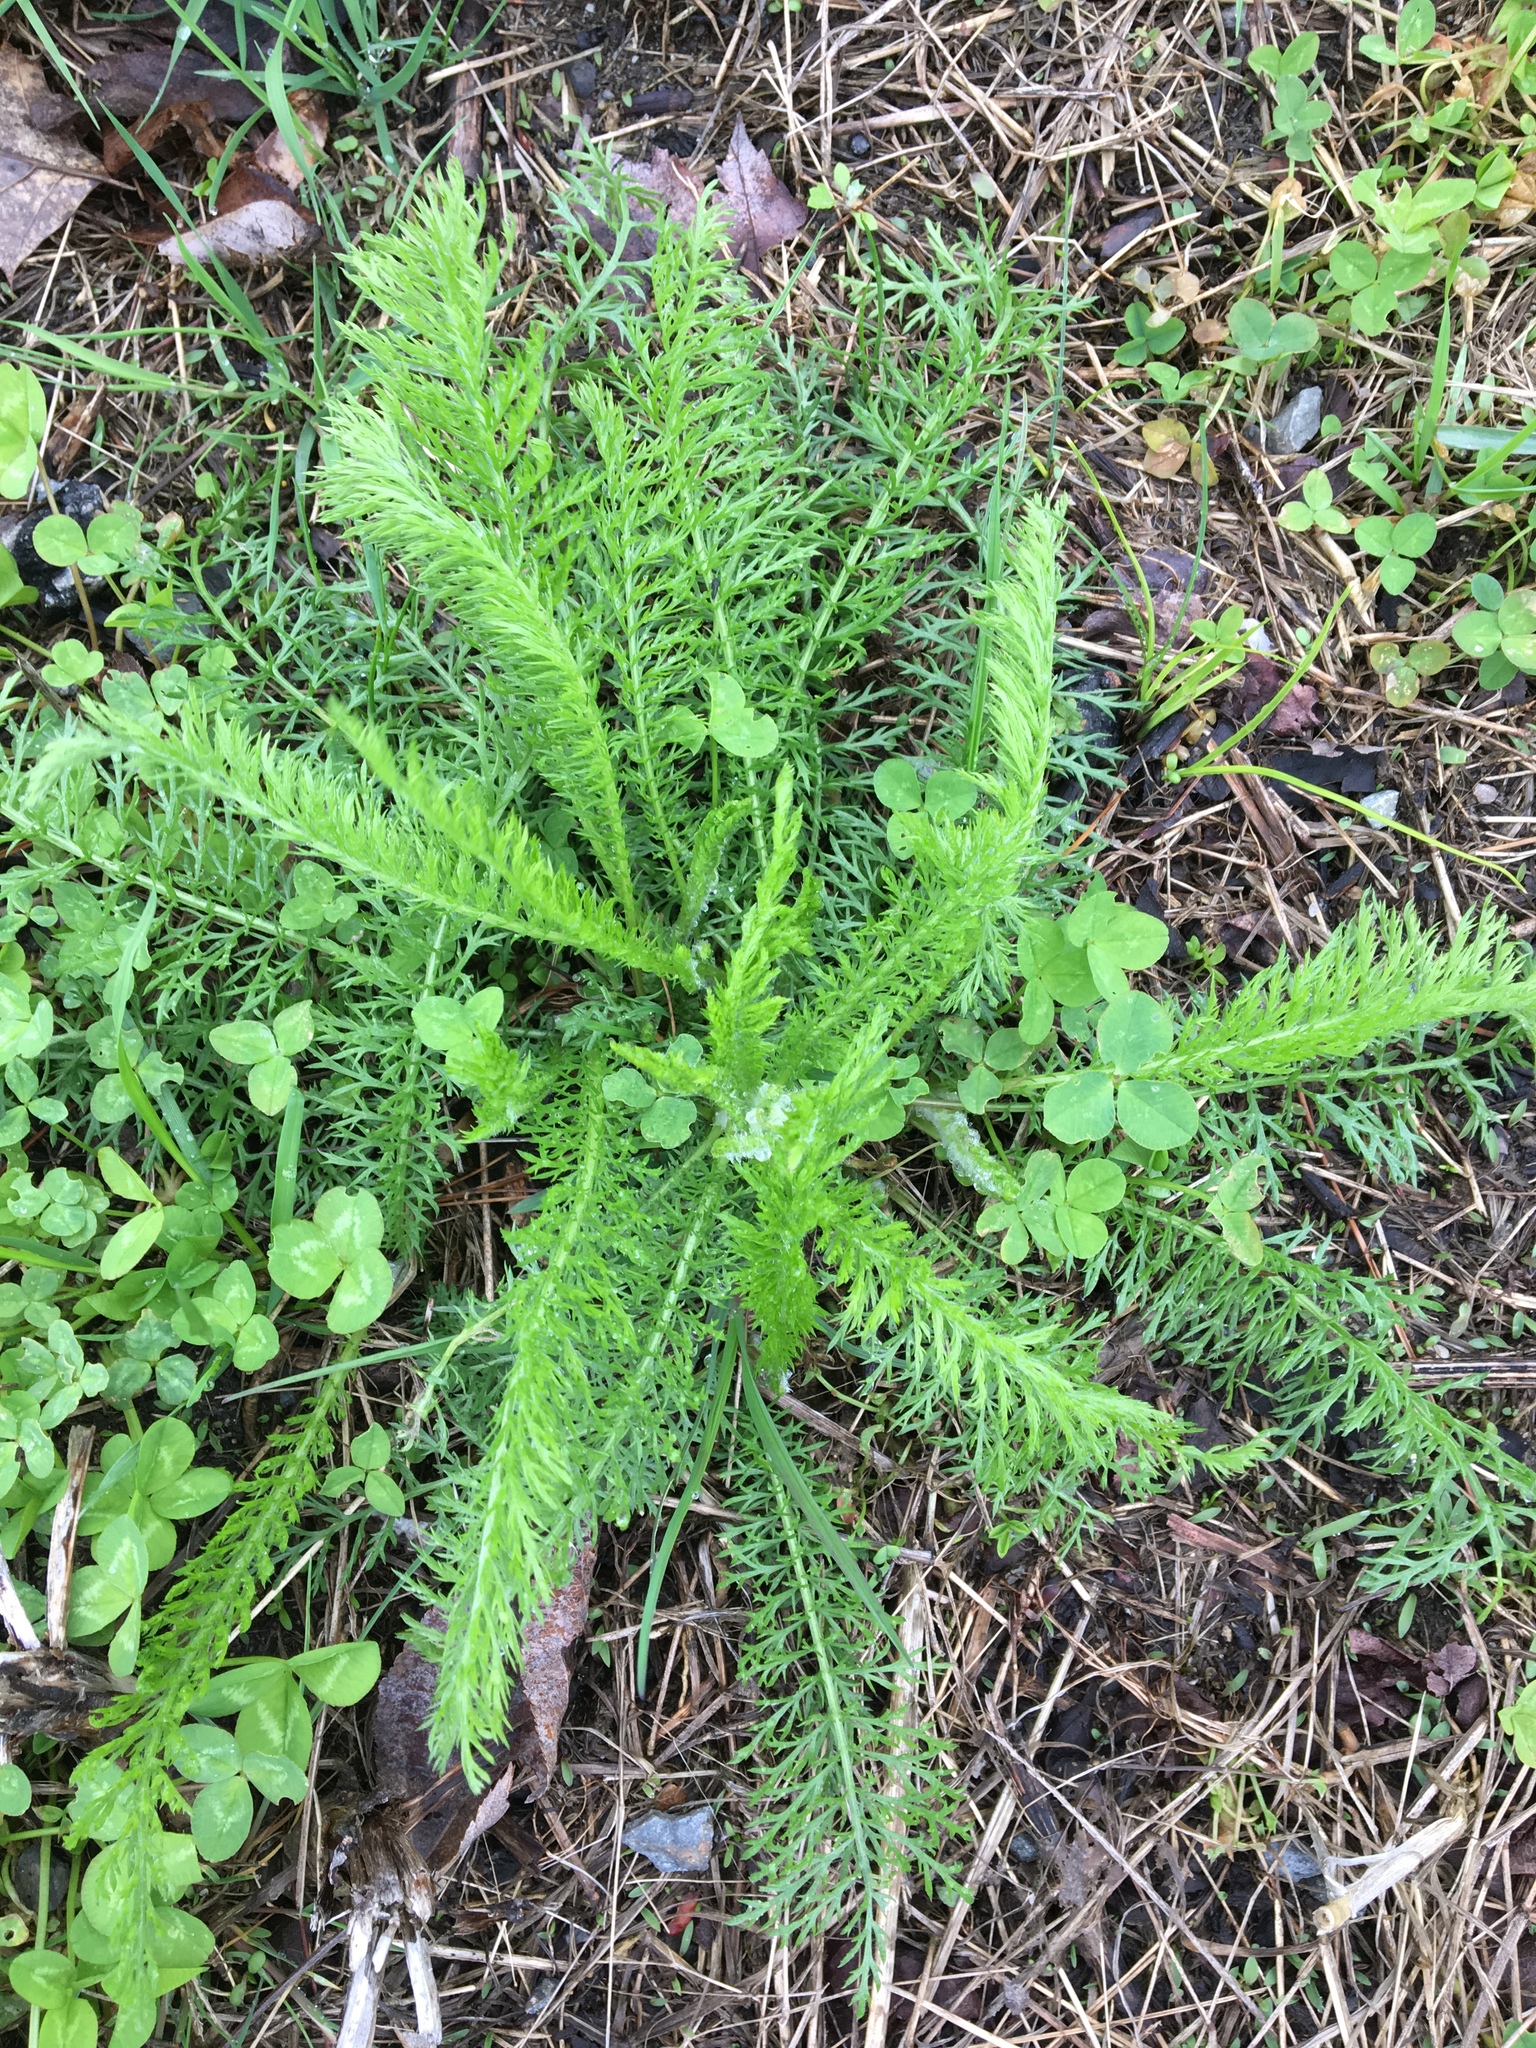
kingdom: Plantae
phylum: Tracheophyta
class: Magnoliopsida
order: Asterales
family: Asteraceae
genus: Achillea
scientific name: Achillea millefolium
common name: Yarrow
